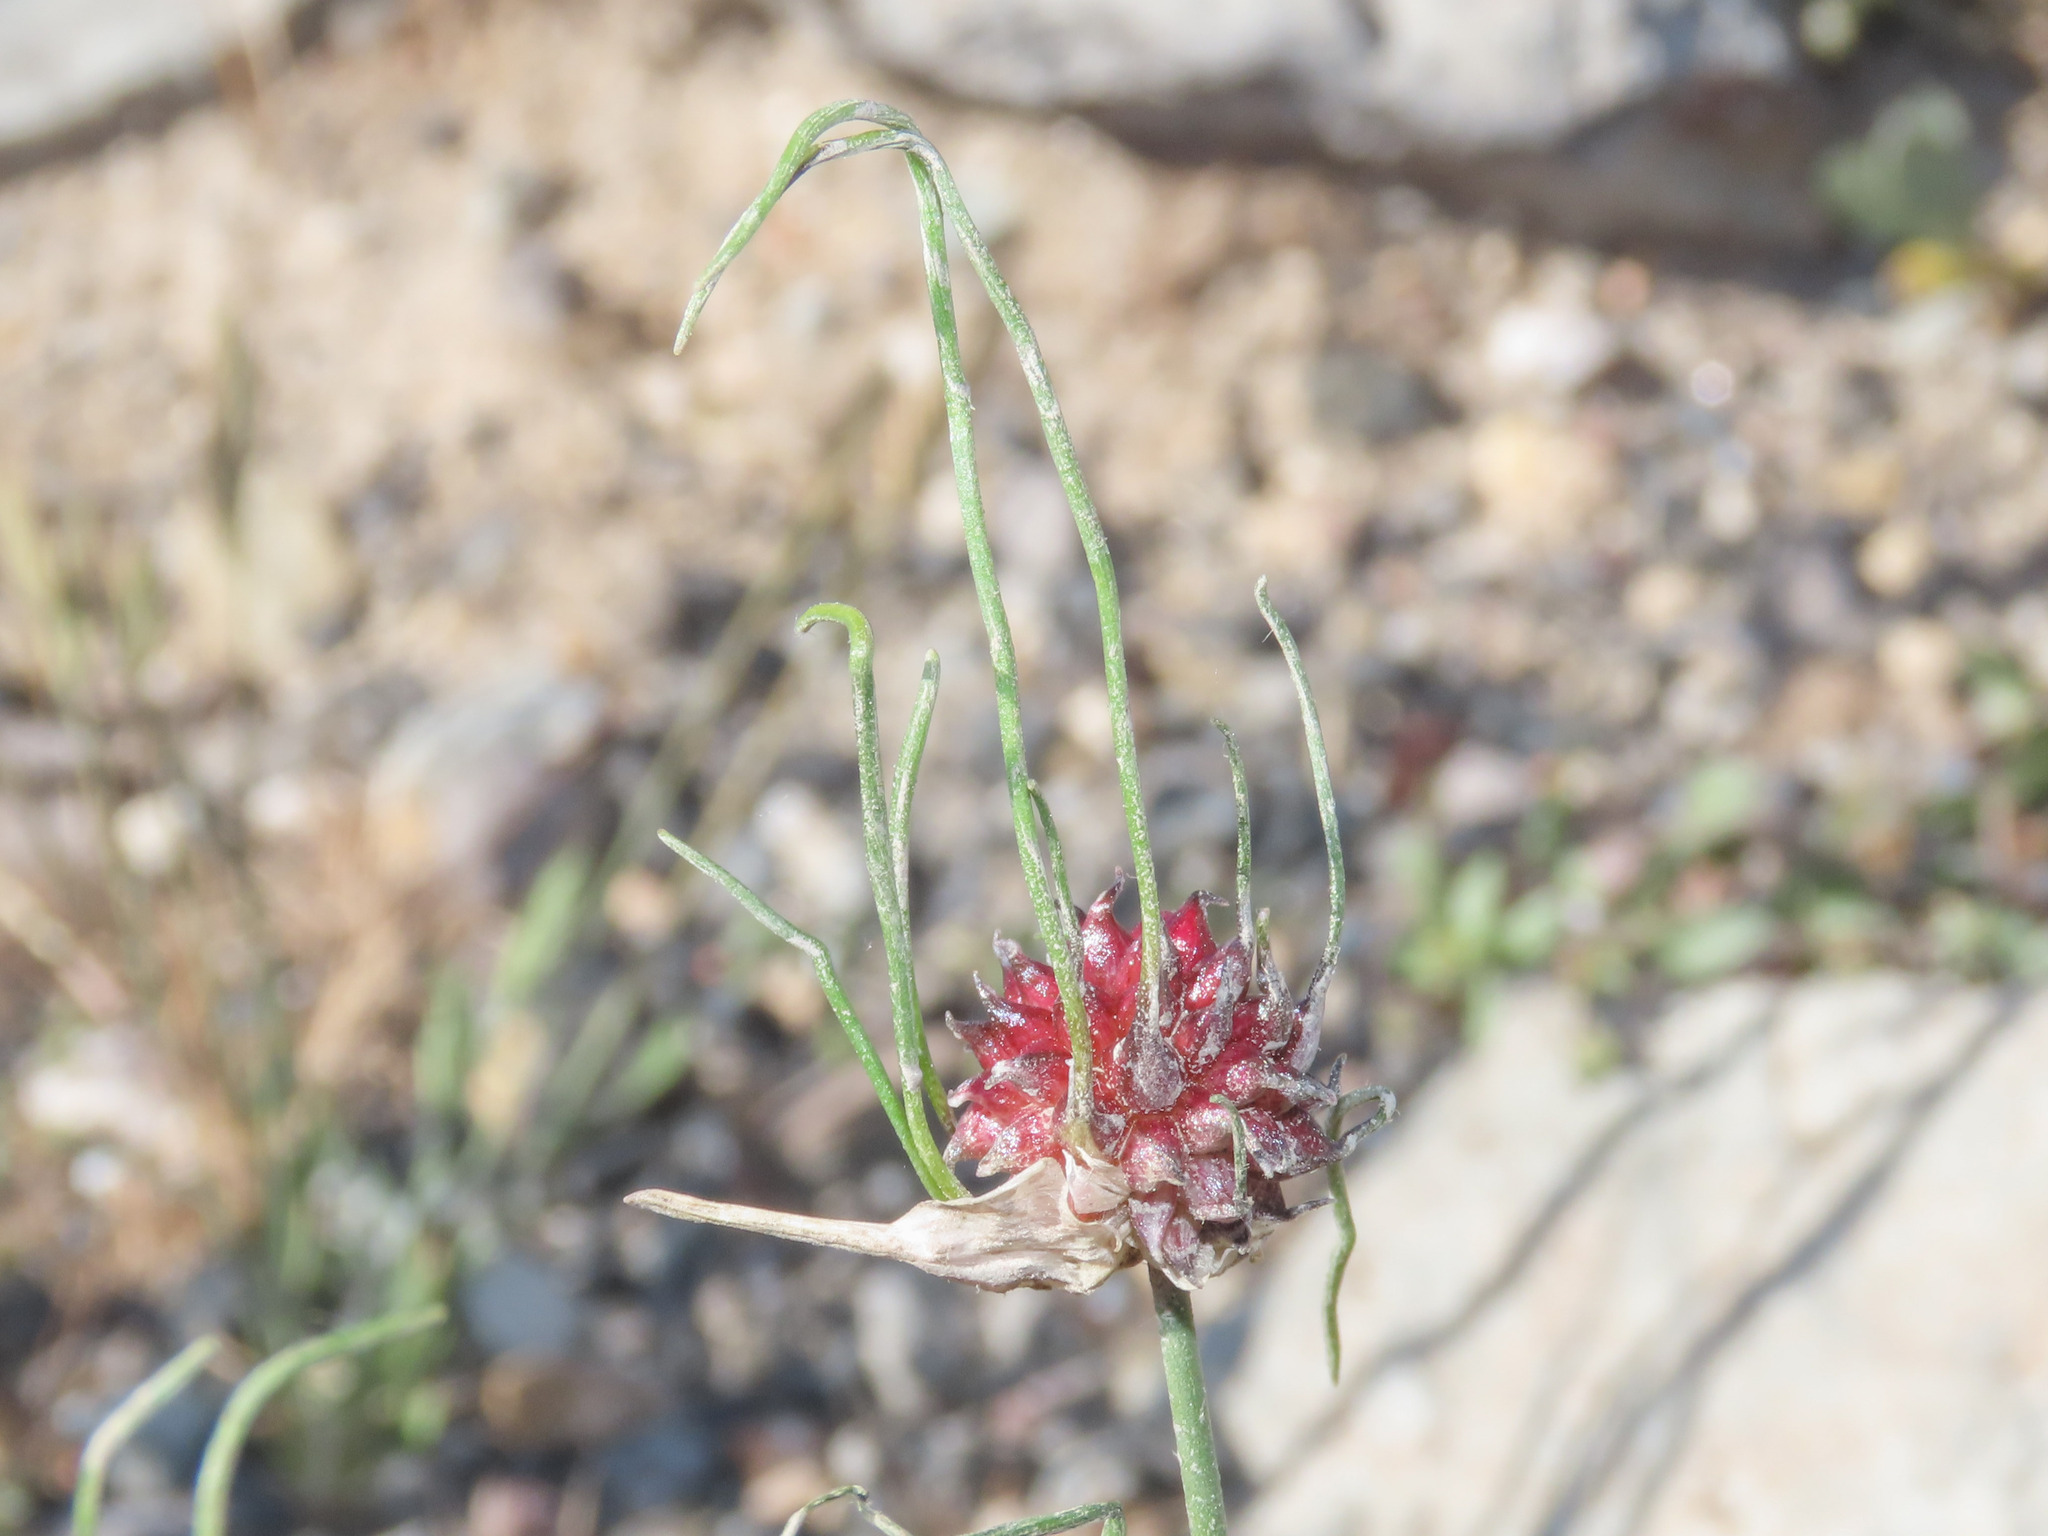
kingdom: Plantae
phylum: Tracheophyta
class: Liliopsida
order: Asparagales
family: Amaryllidaceae
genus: Allium
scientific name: Allium vineale
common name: Crow garlic
